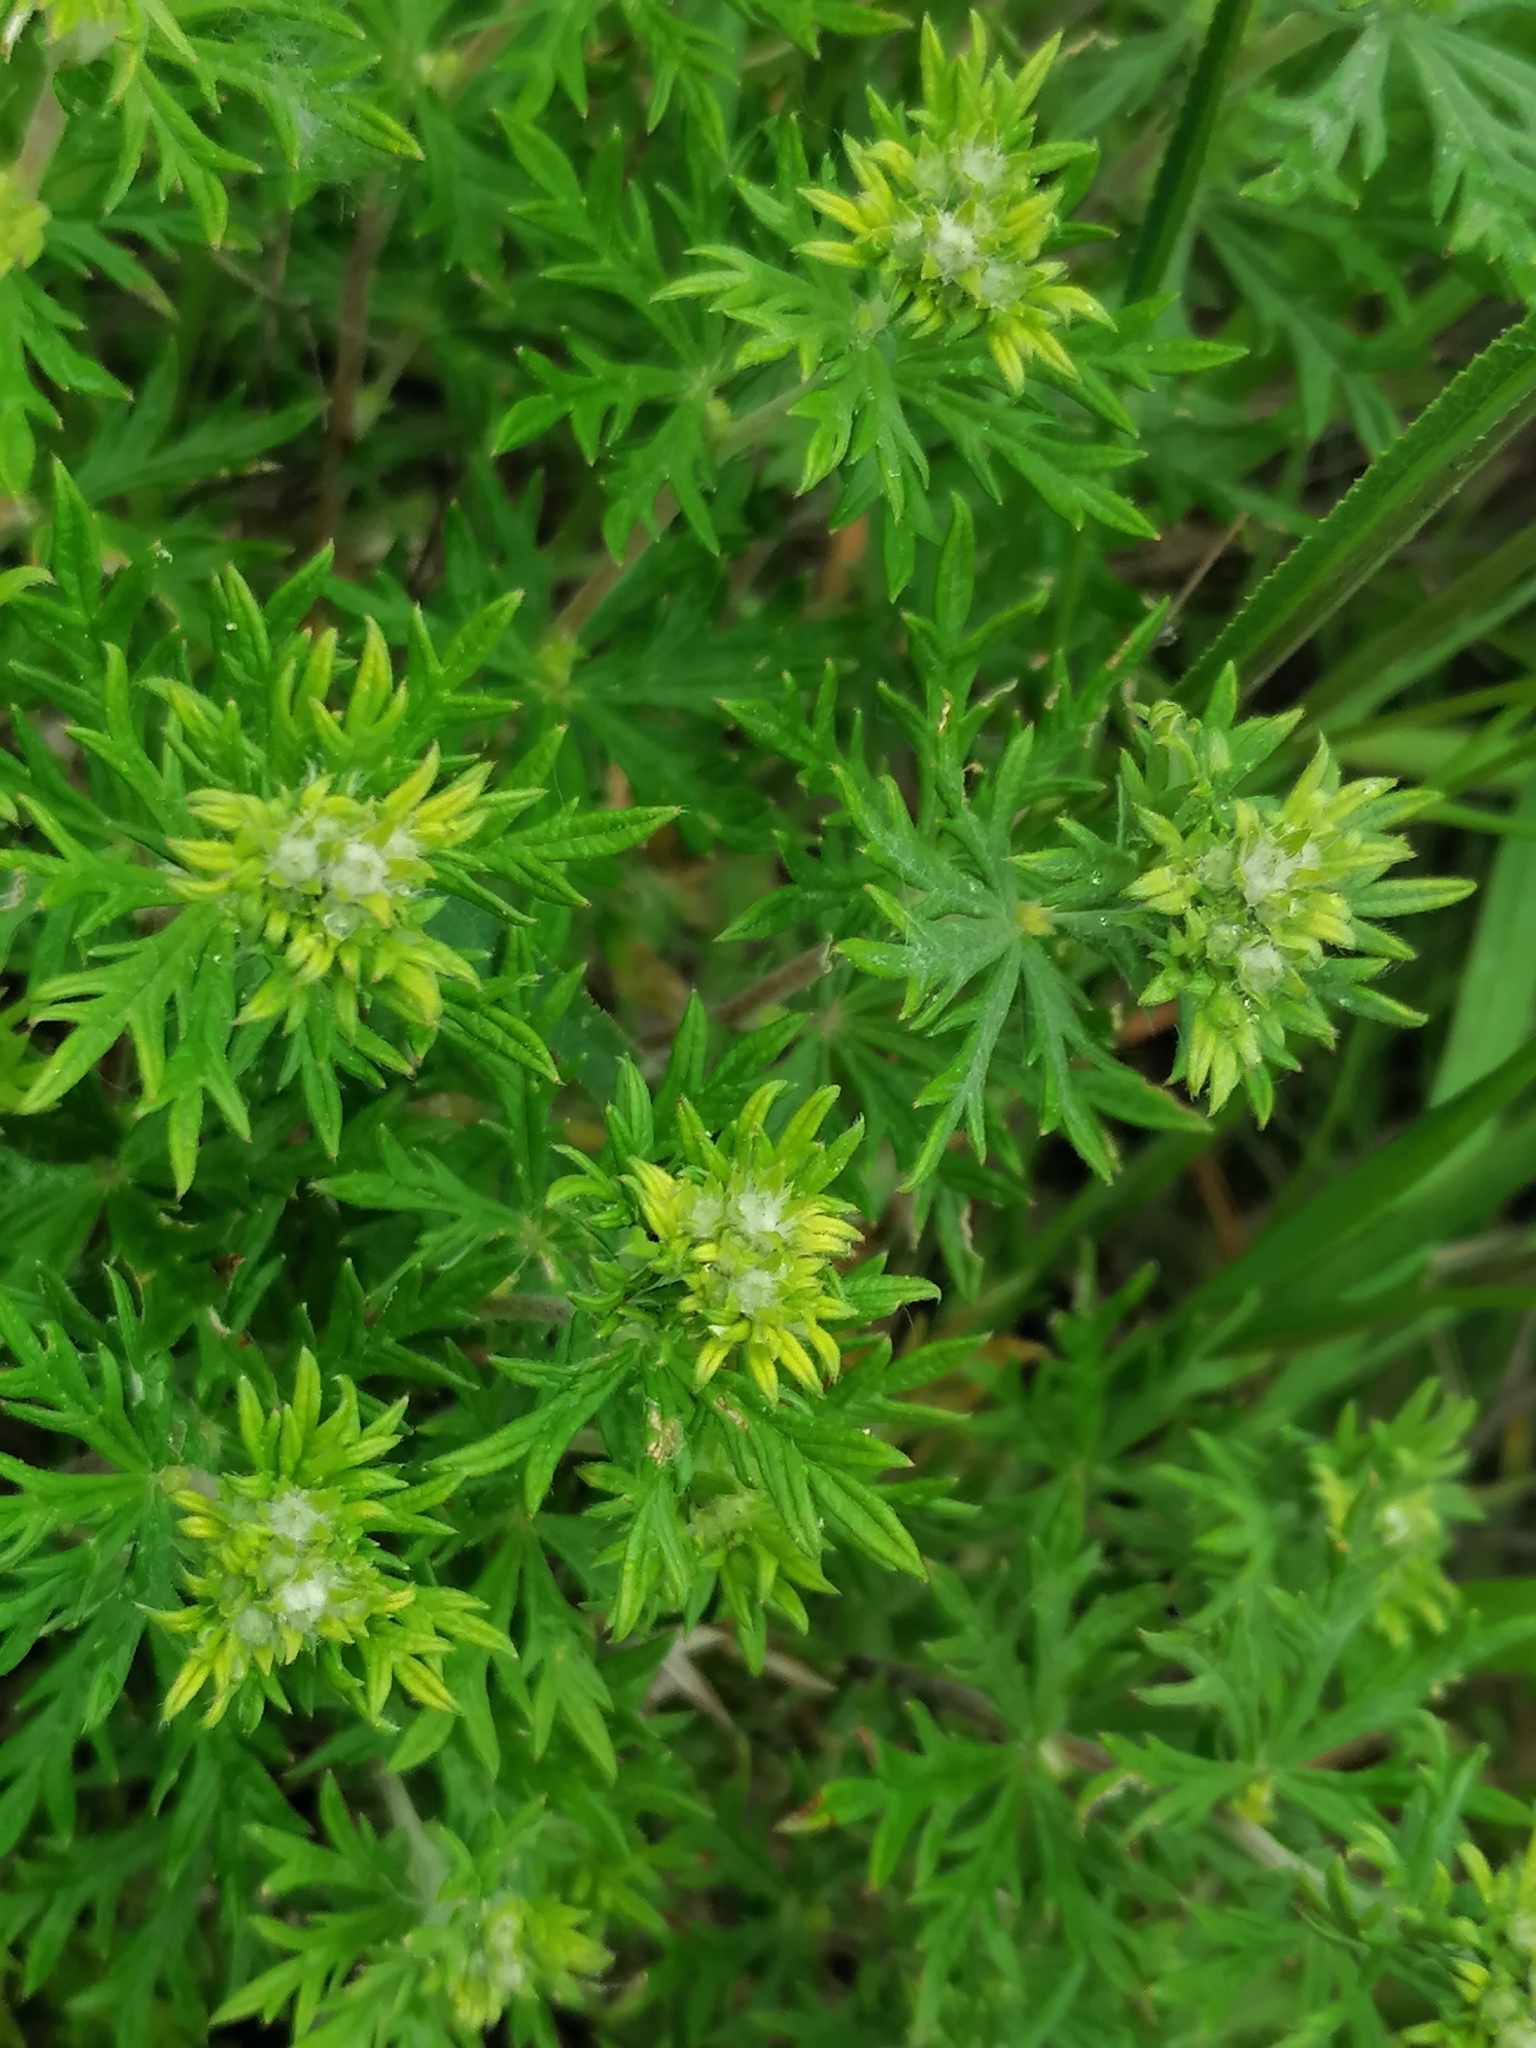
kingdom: Plantae
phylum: Tracheophyta
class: Magnoliopsida
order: Rosales
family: Rosaceae
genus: Potentilla
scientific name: Potentilla argentea
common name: Hoary cinquefoil
